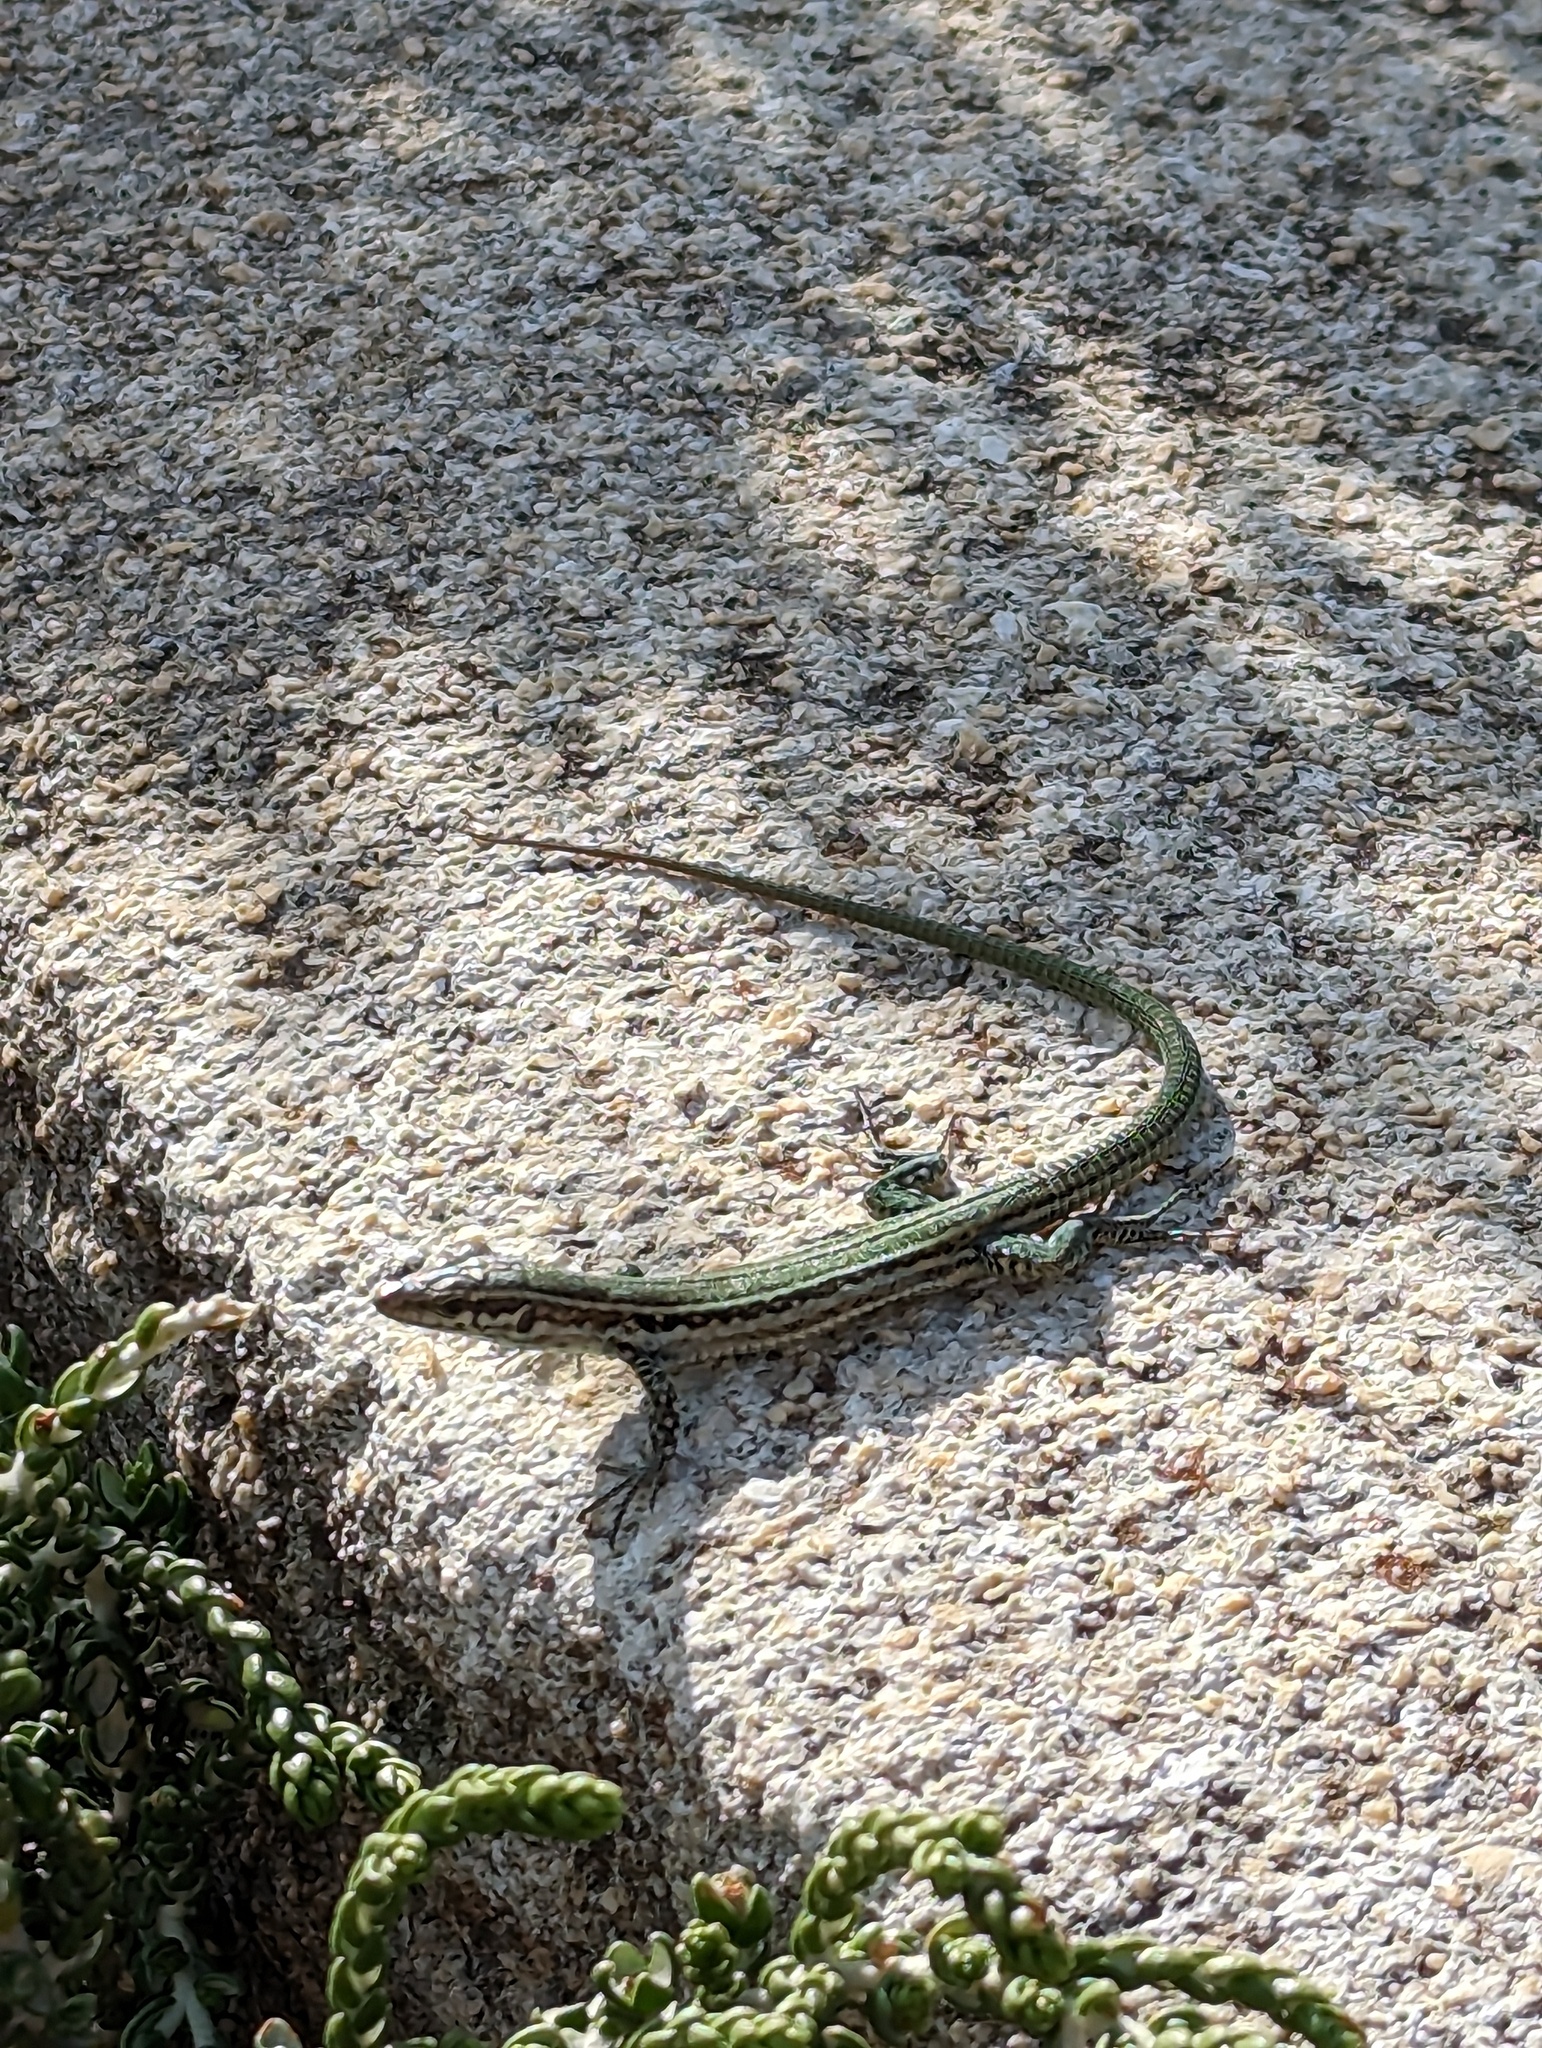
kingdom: Animalia
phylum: Chordata
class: Squamata
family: Lacertidae
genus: Podarcis
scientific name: Podarcis tiliguerta
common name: Tyrrhenian wall lizard
